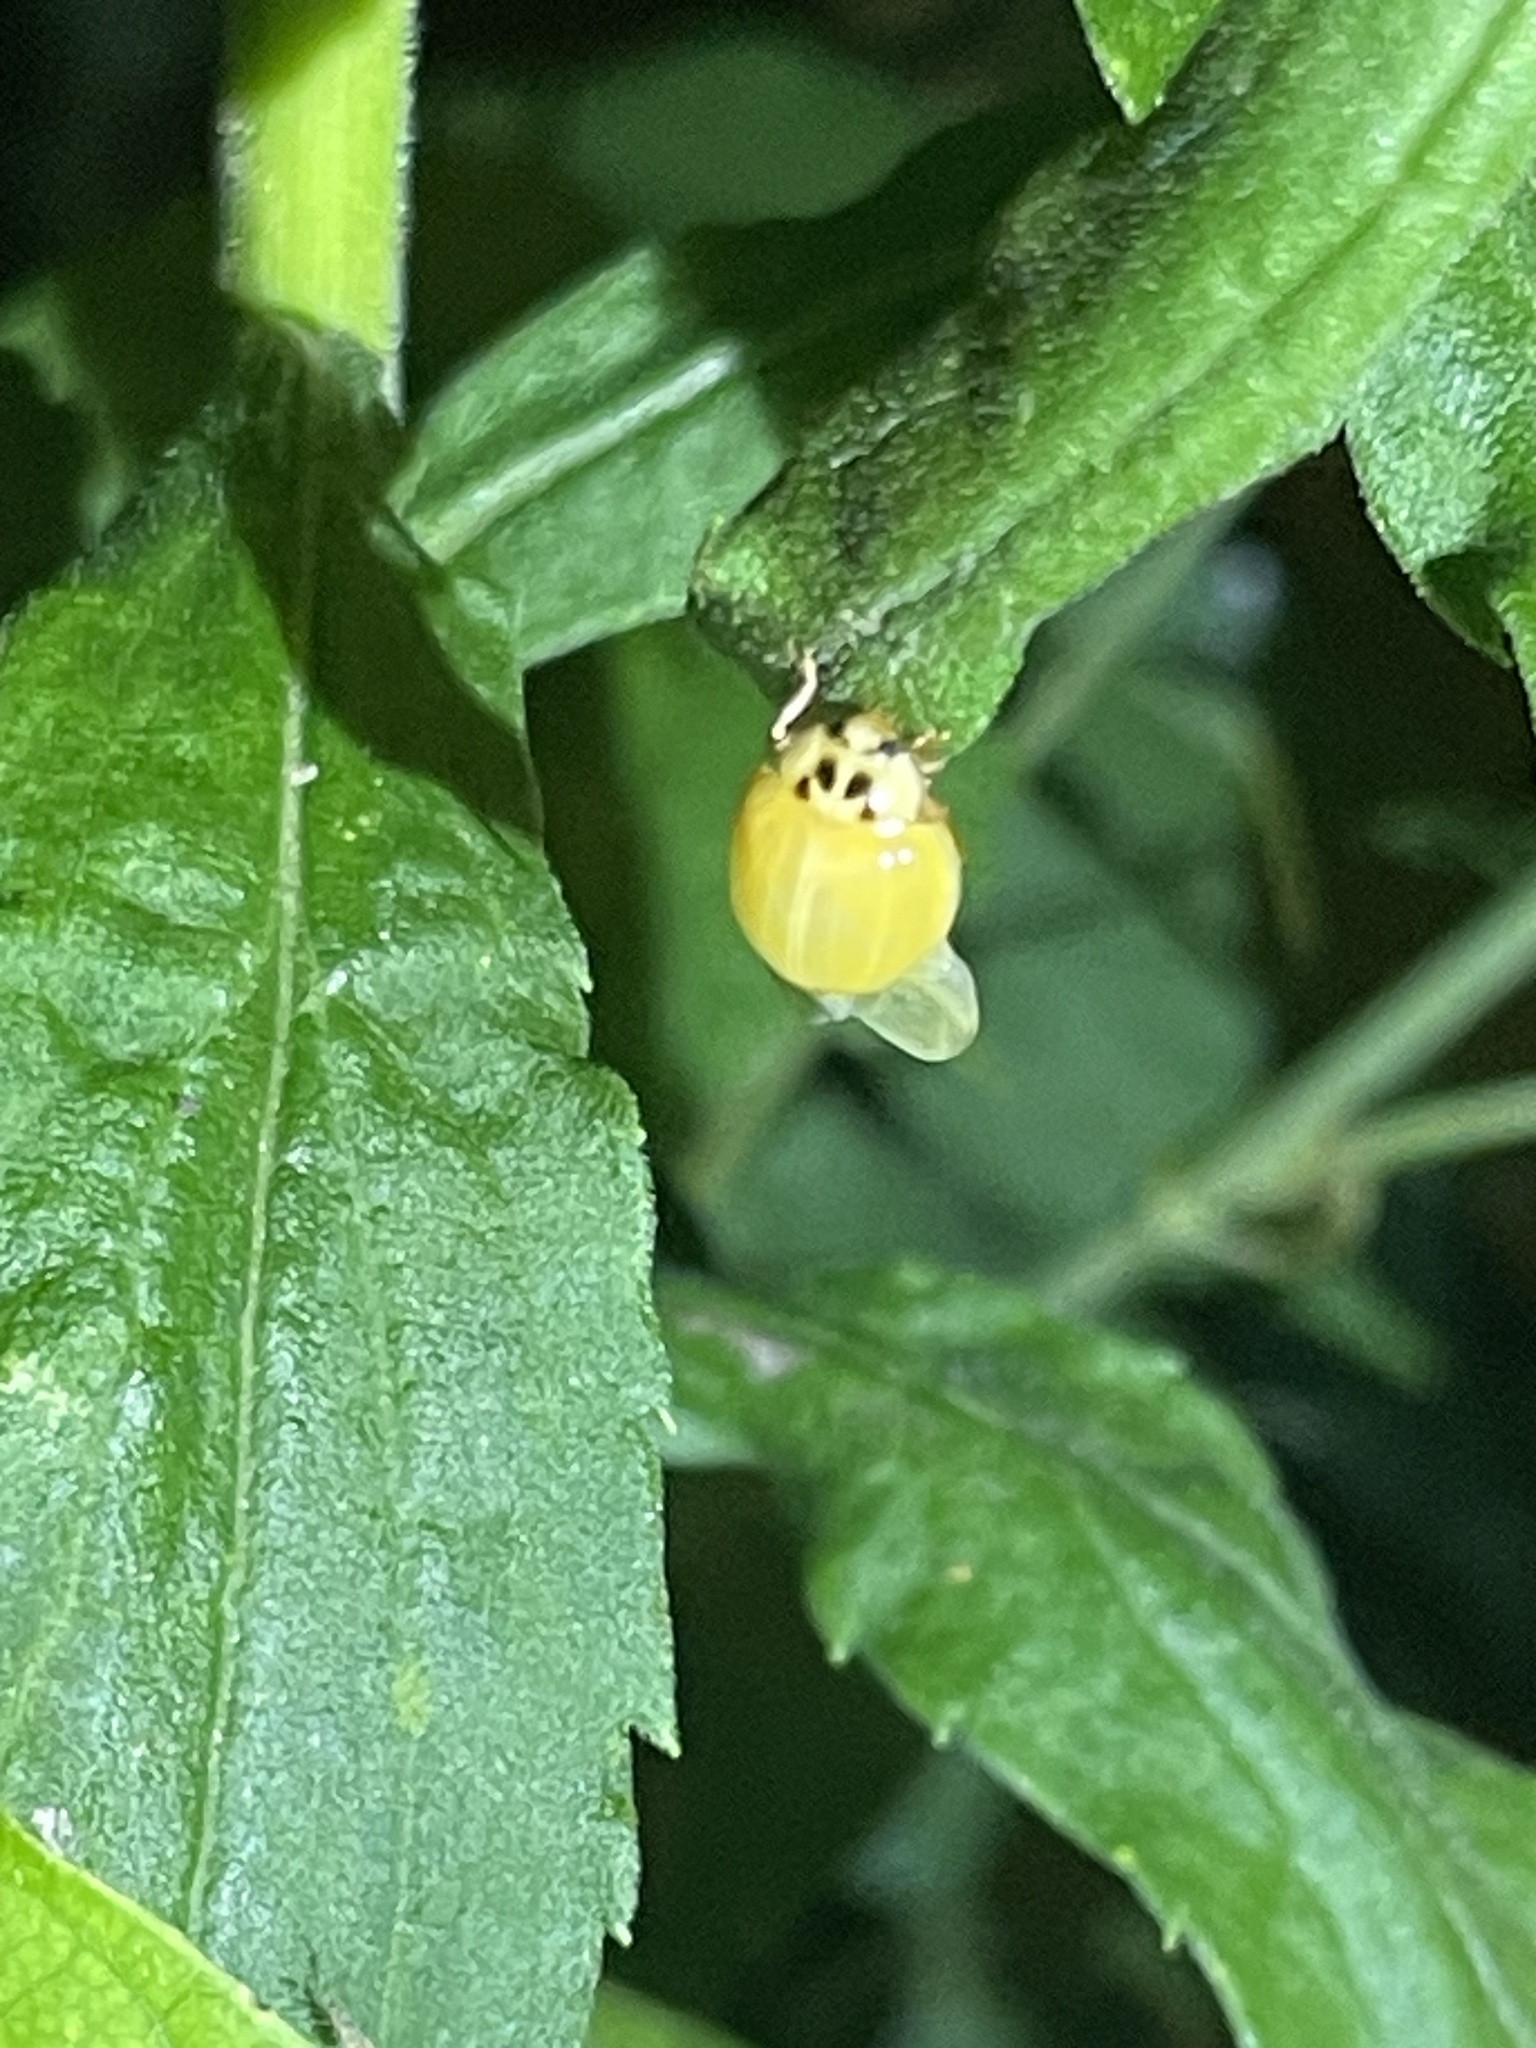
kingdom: Animalia
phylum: Arthropoda
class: Insecta
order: Coleoptera
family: Coccinellidae
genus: Harmonia
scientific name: Harmonia axyridis
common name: Harlequin ladybird
